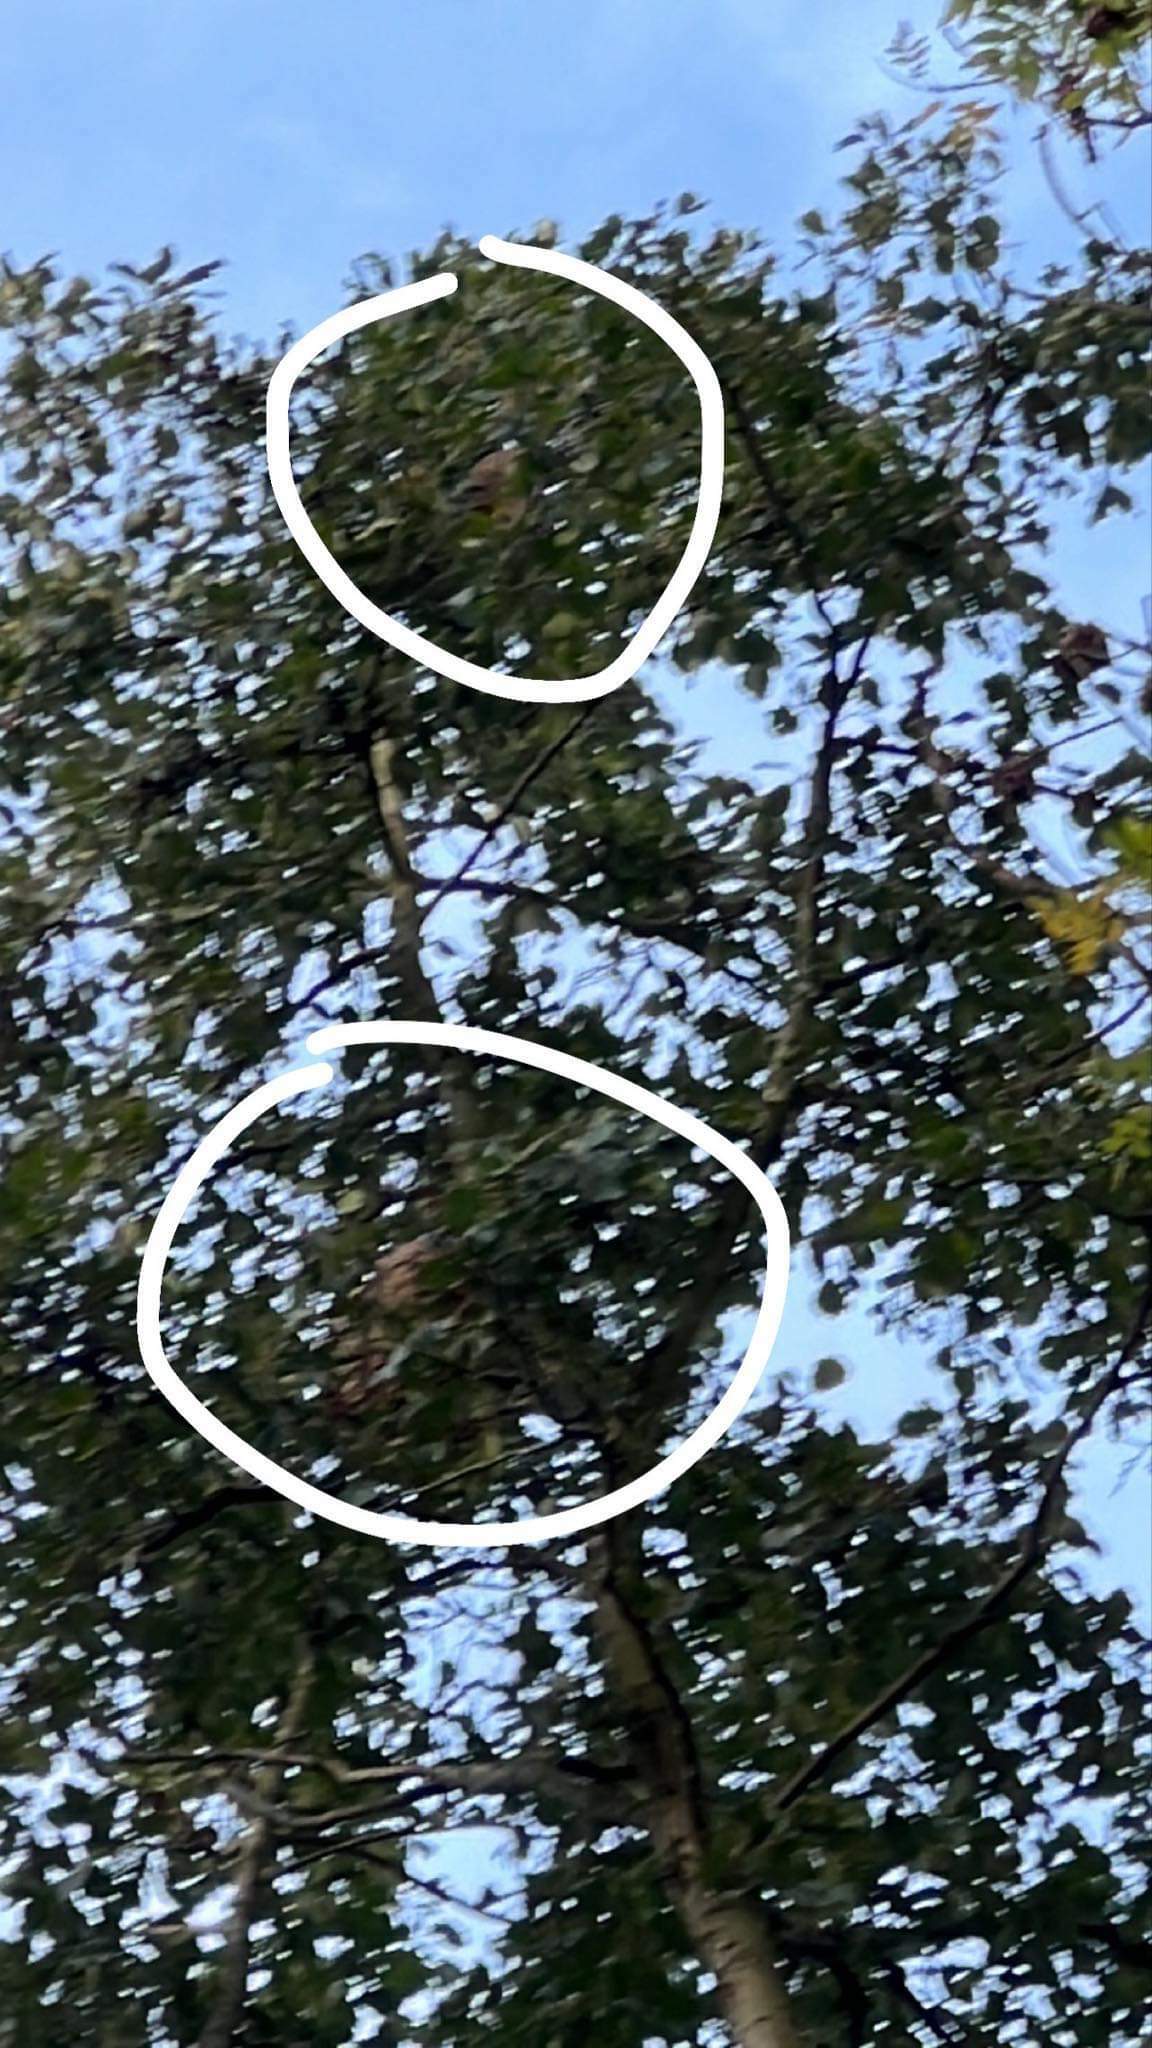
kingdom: Animalia
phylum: Arthropoda
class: Insecta
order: Hymenoptera
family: Vespidae
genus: Vespa
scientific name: Vespa velutina
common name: Asian hornet
